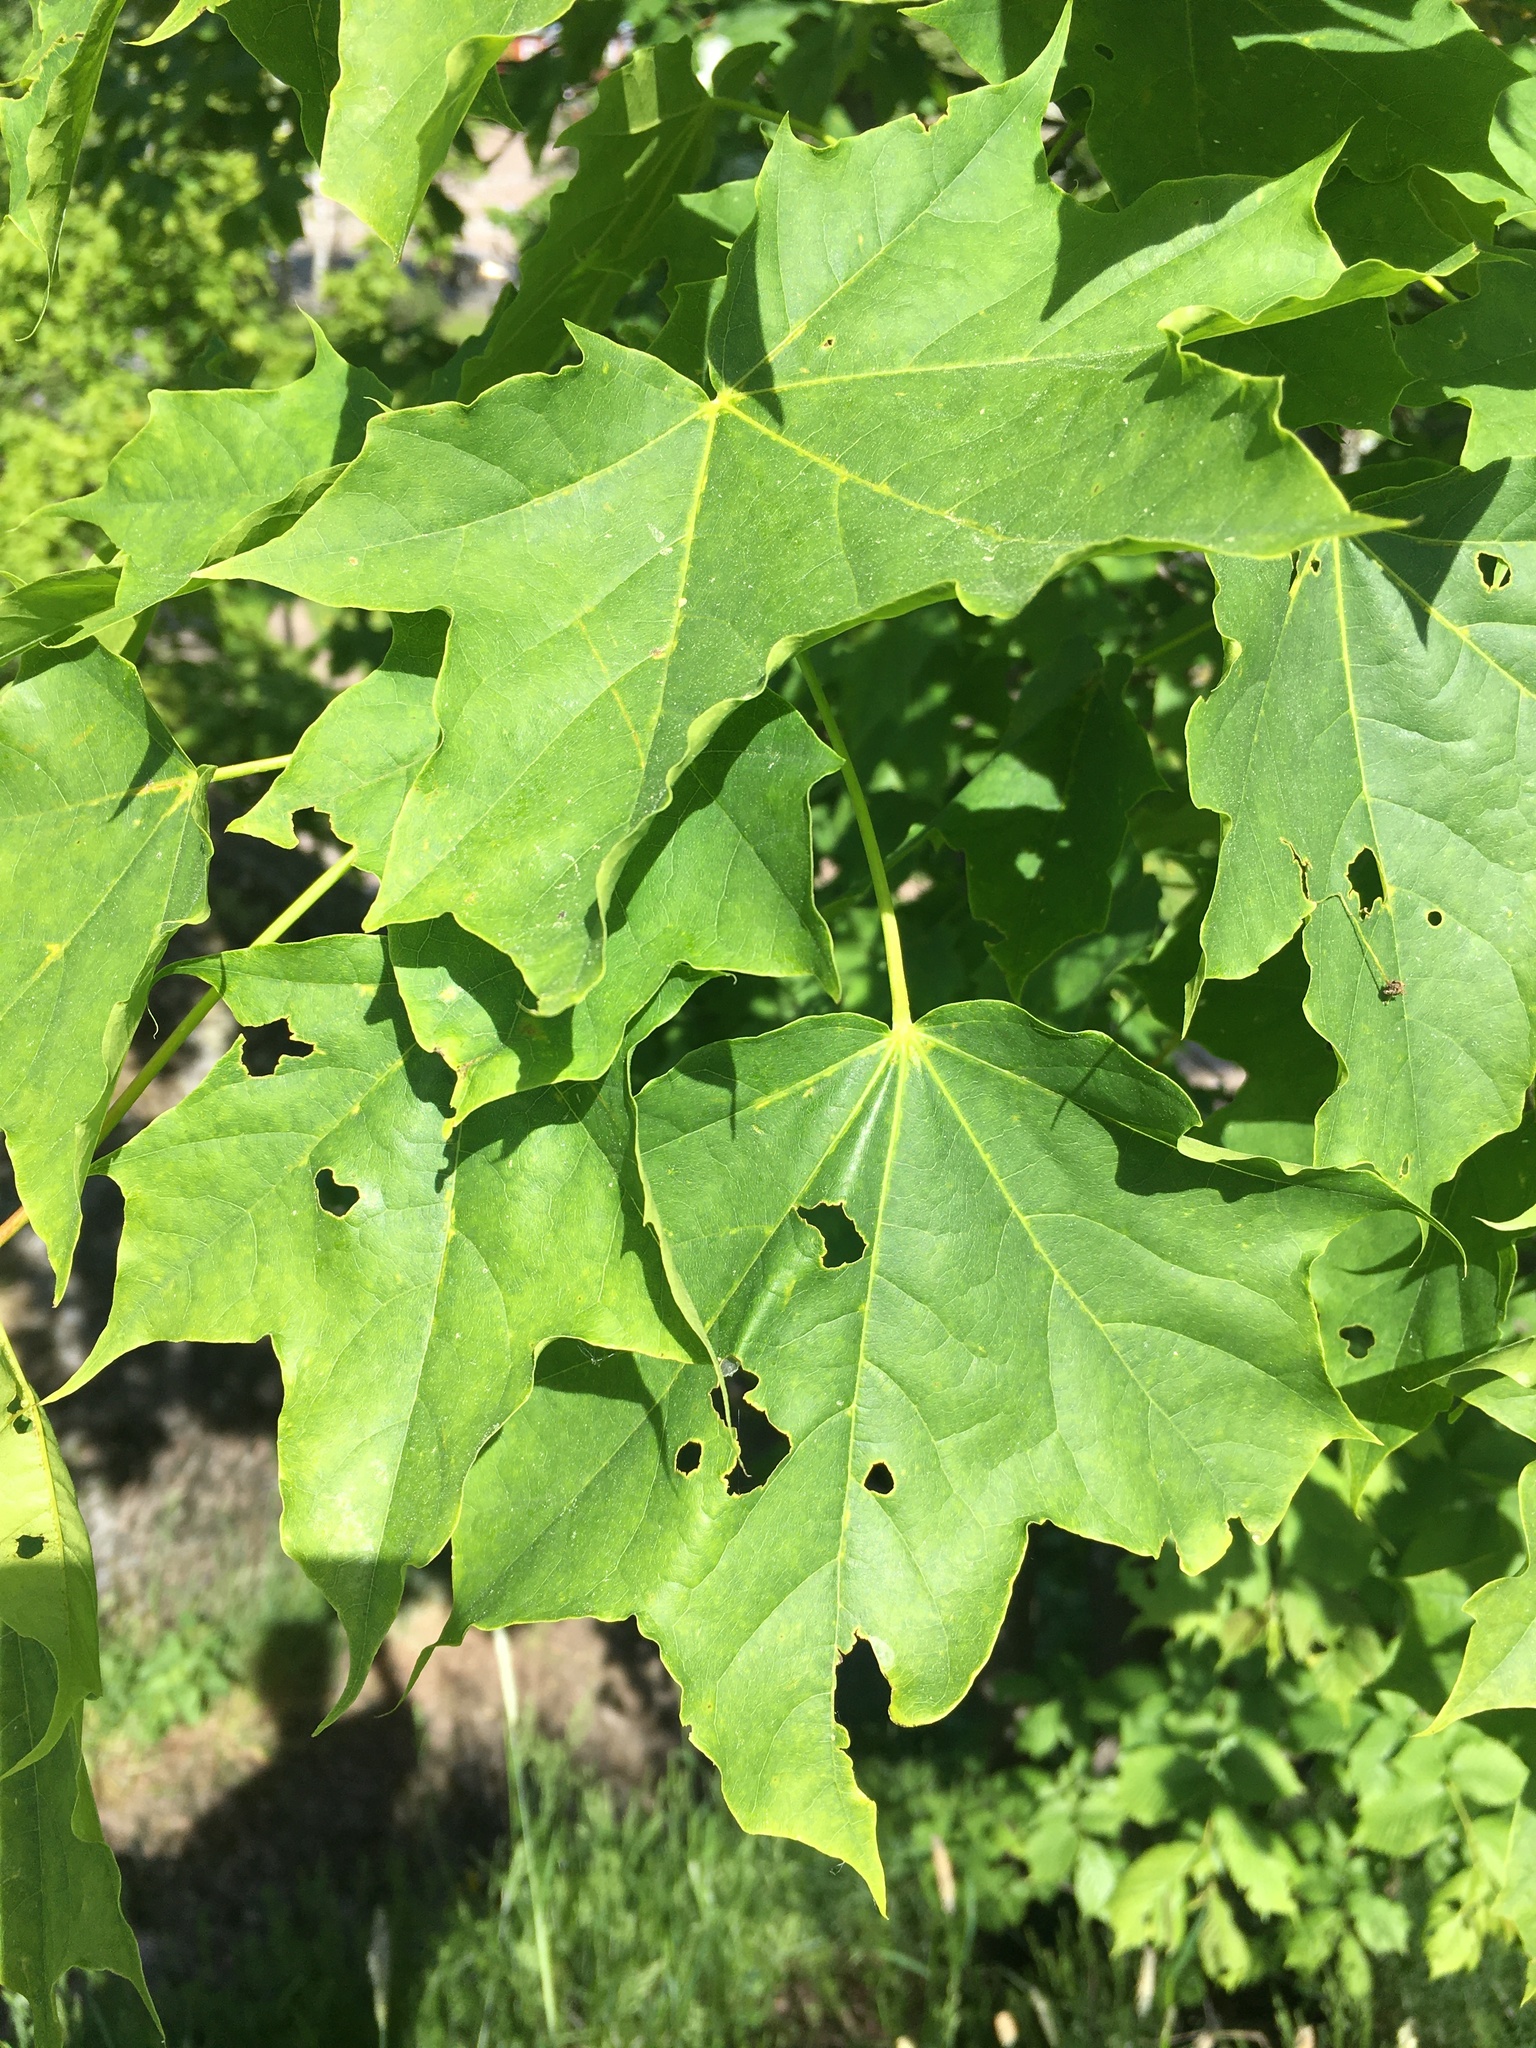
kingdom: Plantae
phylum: Tracheophyta
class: Magnoliopsida
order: Sapindales
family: Sapindaceae
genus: Acer
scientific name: Acer platanoides
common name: Norway maple
